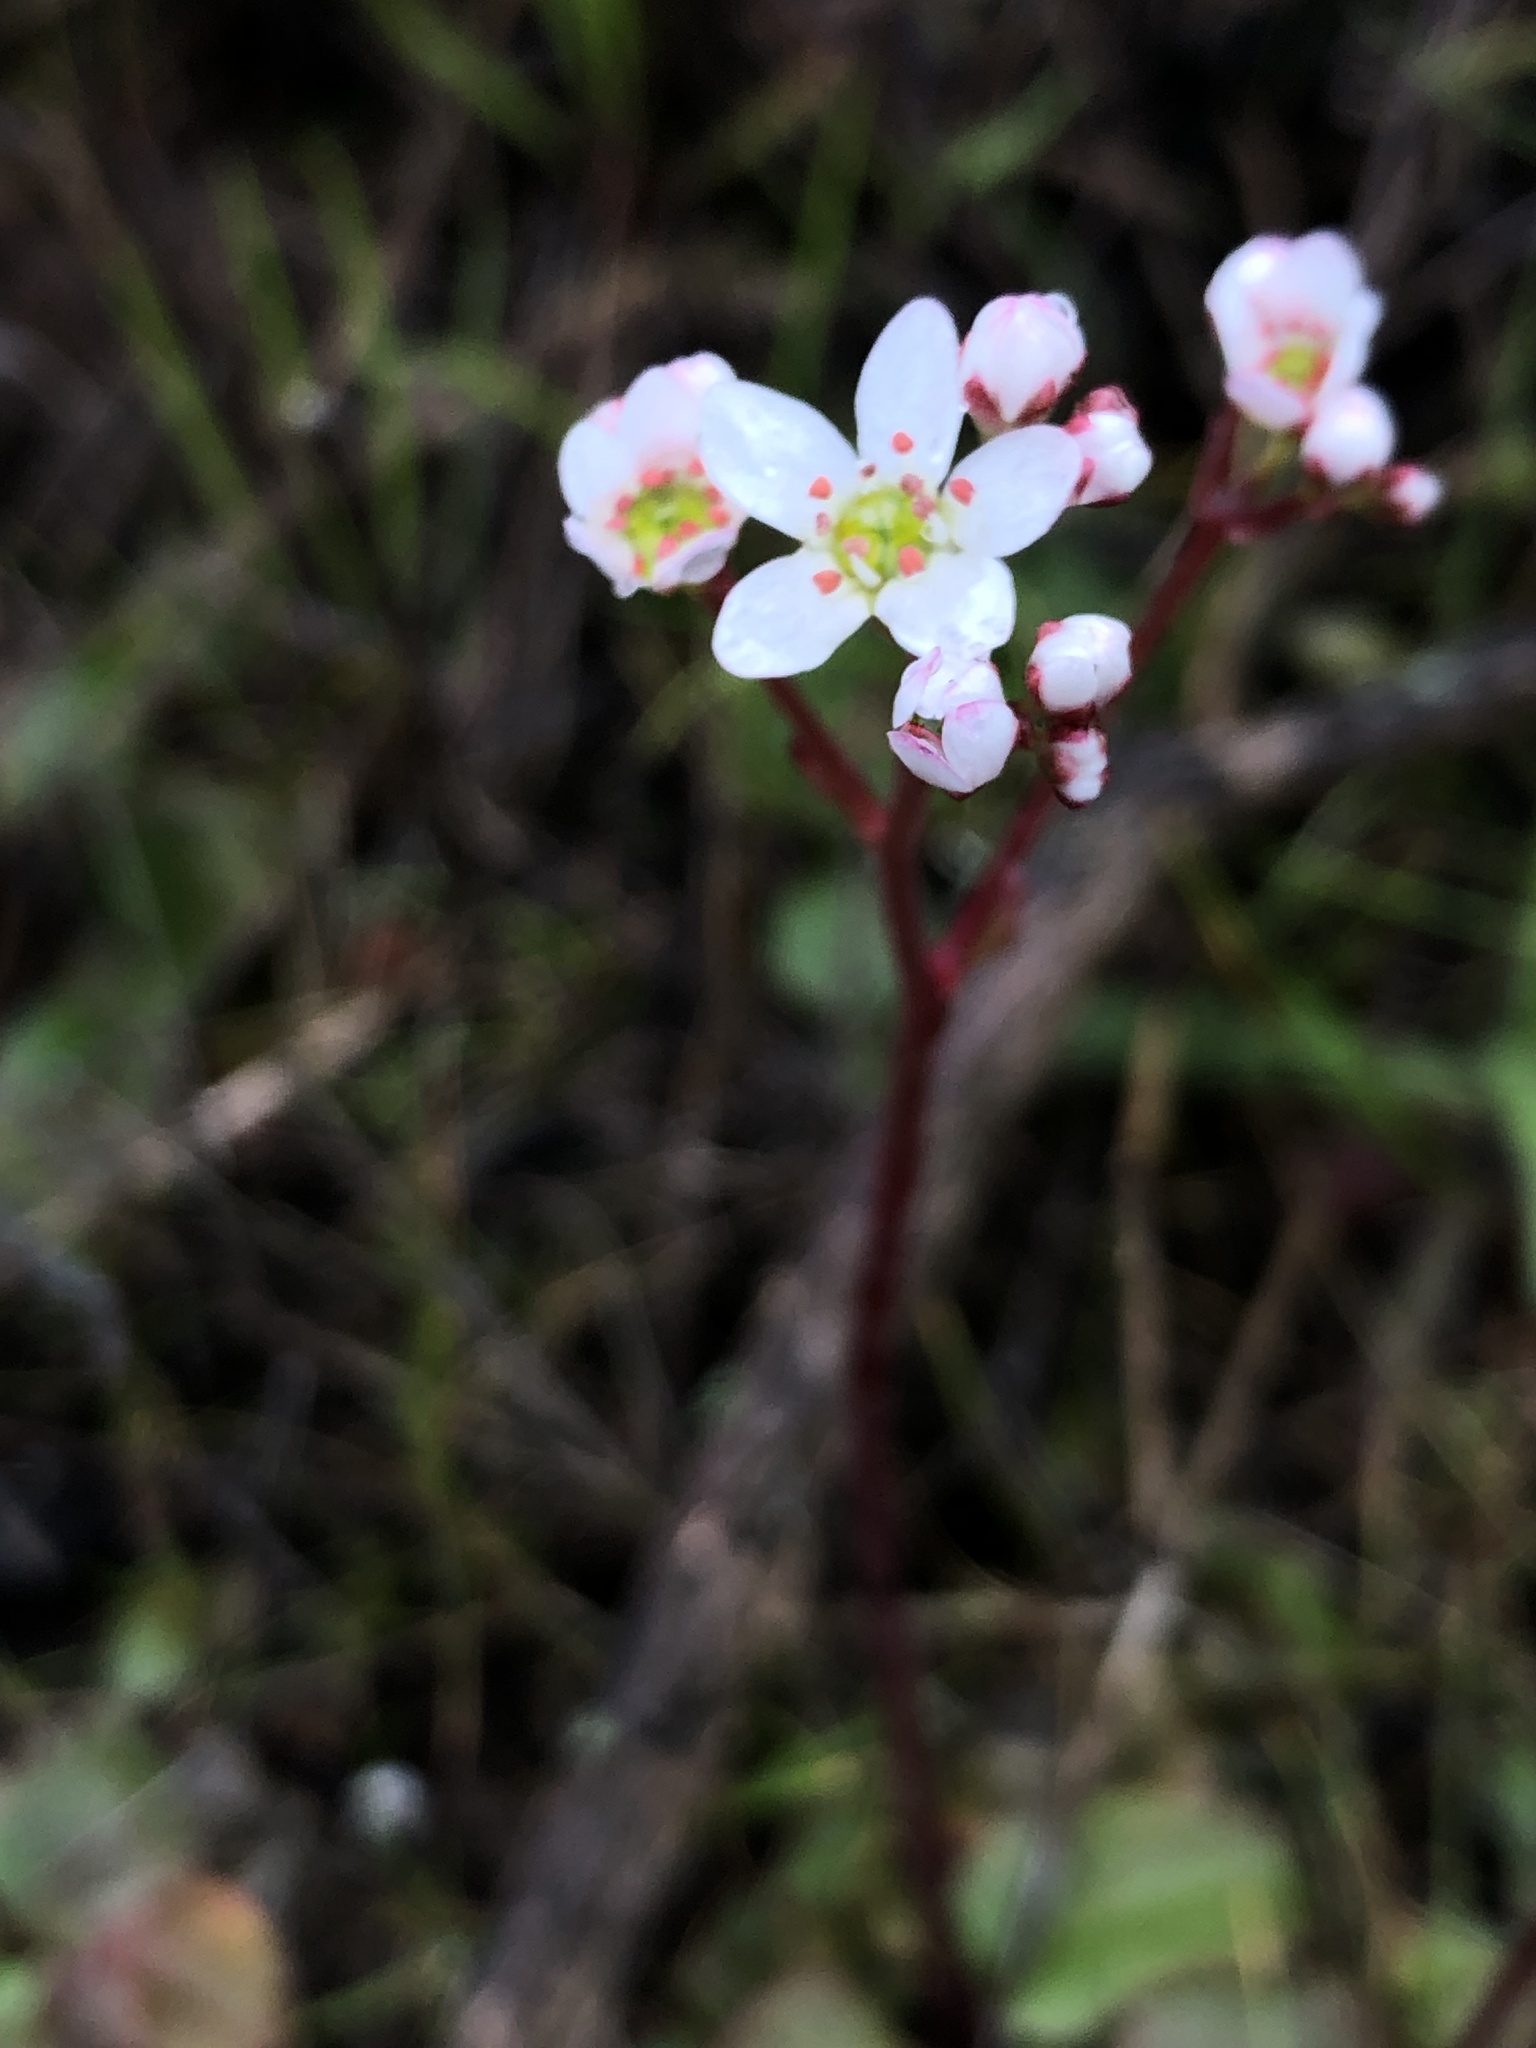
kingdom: Plantae
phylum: Tracheophyta
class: Magnoliopsida
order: Saxifragales
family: Saxifragaceae
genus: Micranthes
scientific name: Micranthes californica
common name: California saxifrage
